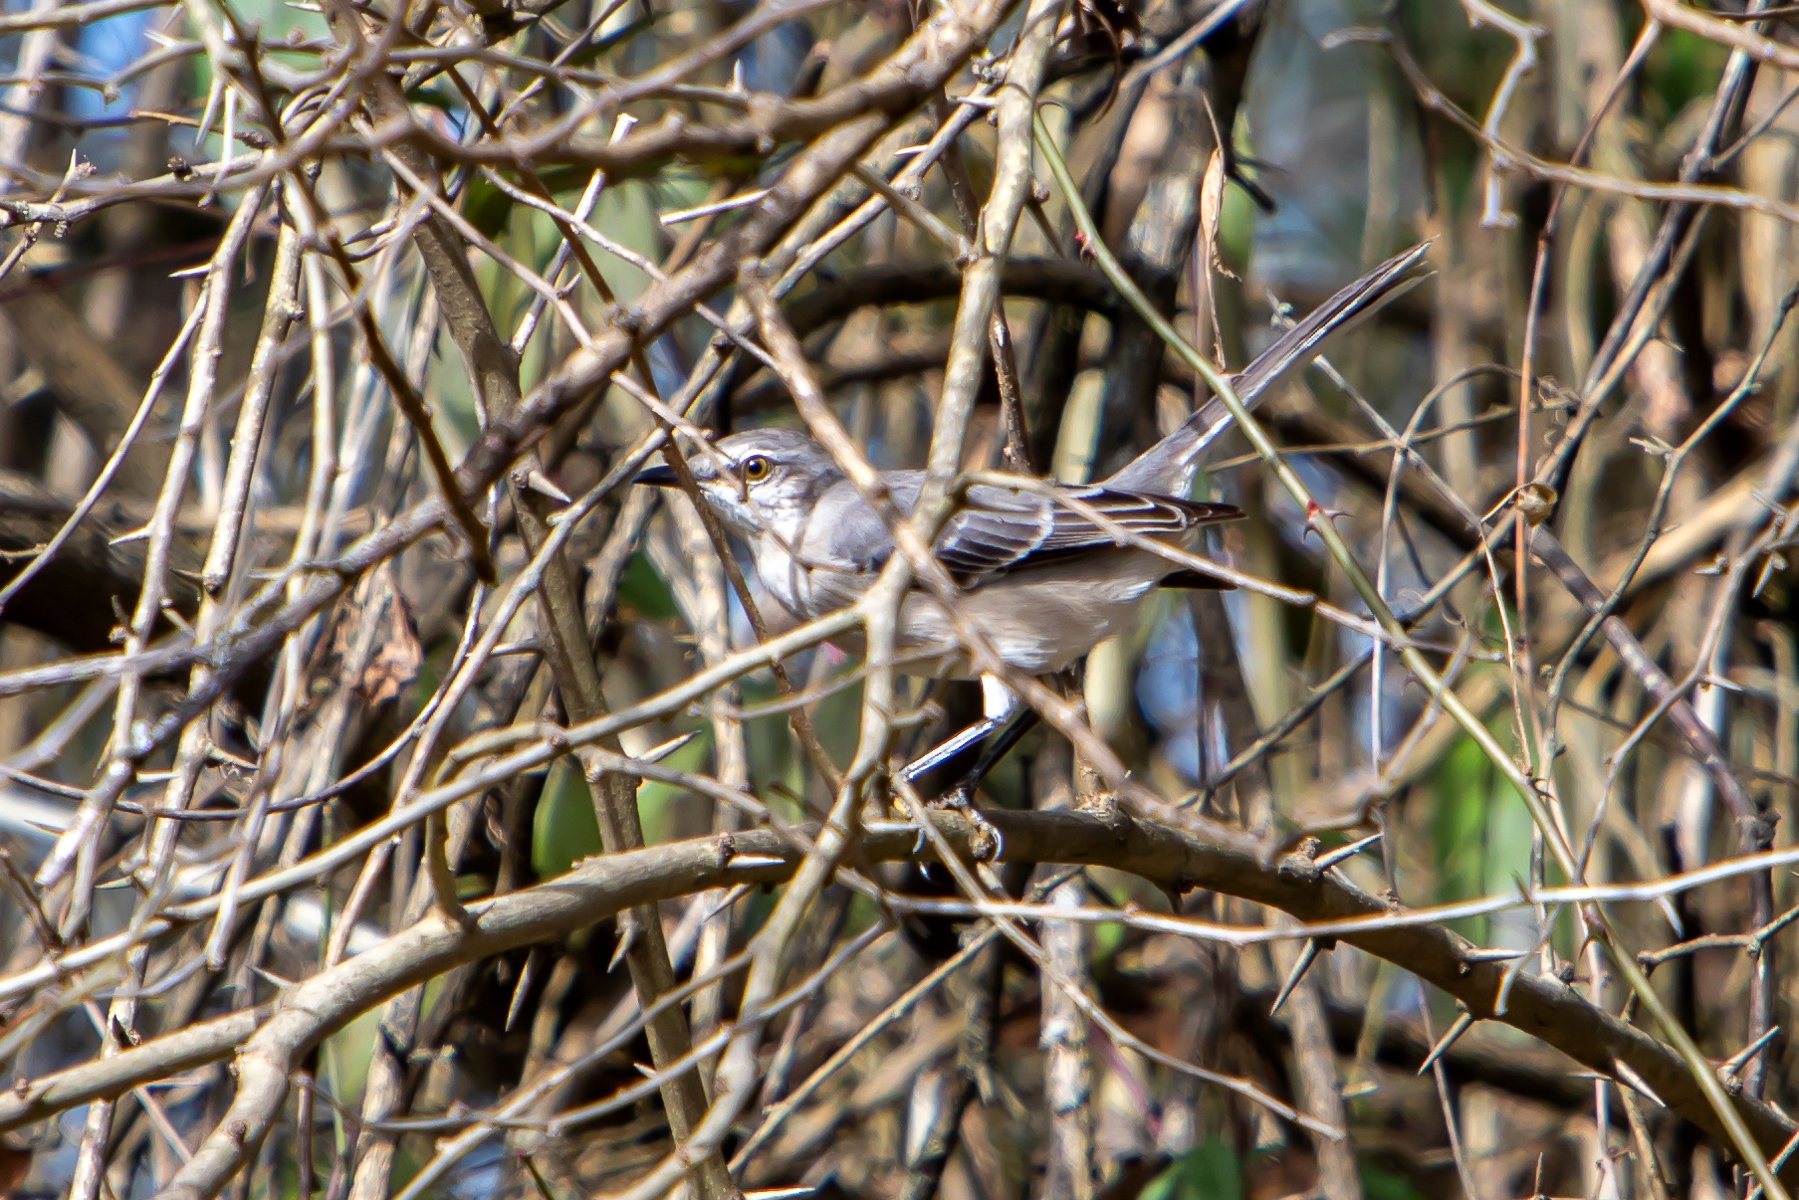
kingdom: Animalia
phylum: Chordata
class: Aves
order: Passeriformes
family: Mimidae
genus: Mimus
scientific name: Mimus polyglottos
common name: Northern mockingbird
